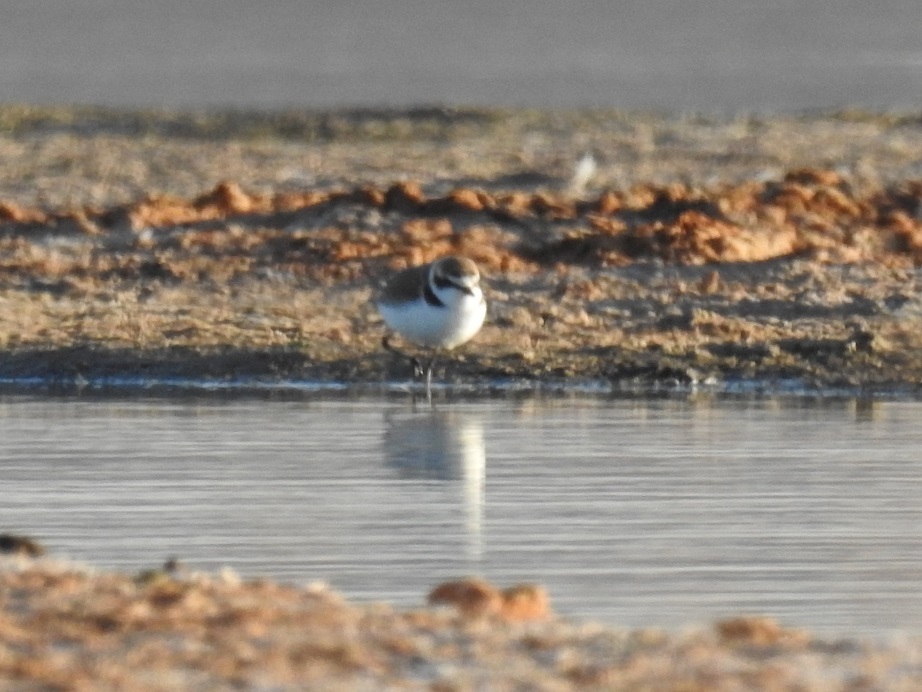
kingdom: Animalia
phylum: Chordata
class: Aves
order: Charadriiformes
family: Charadriidae
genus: Charadrius
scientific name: Charadrius alexandrinus
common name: Kentish plover
